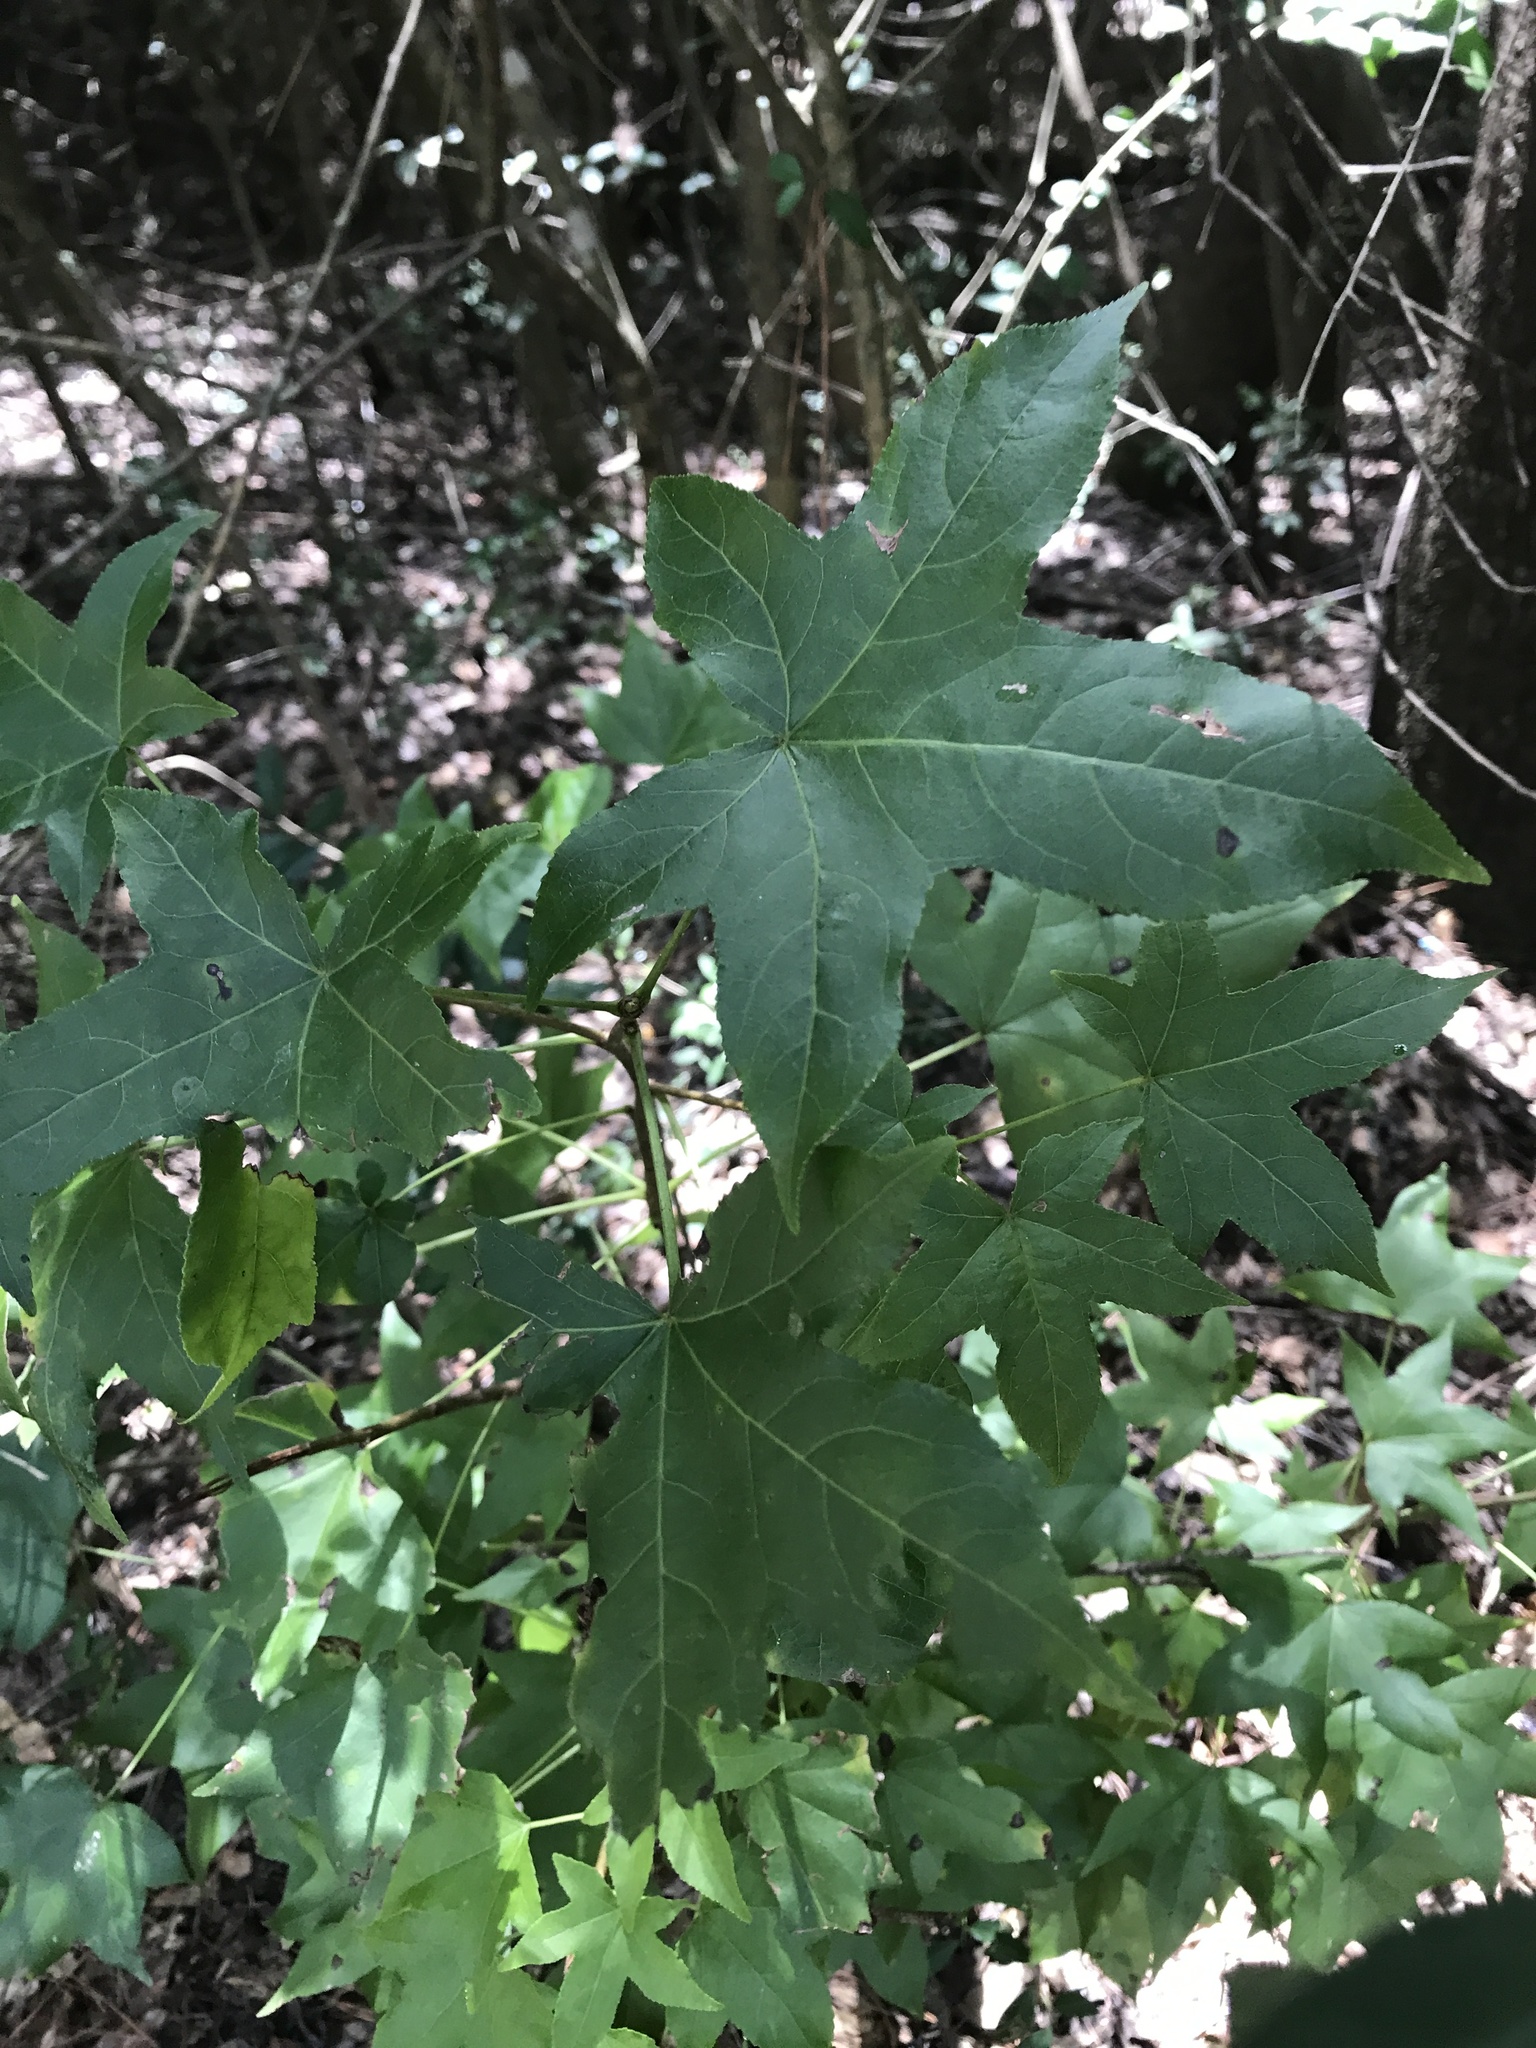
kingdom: Plantae
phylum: Tracheophyta
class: Magnoliopsida
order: Saxifragales
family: Altingiaceae
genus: Liquidambar
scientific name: Liquidambar styraciflua
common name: Sweet gum
